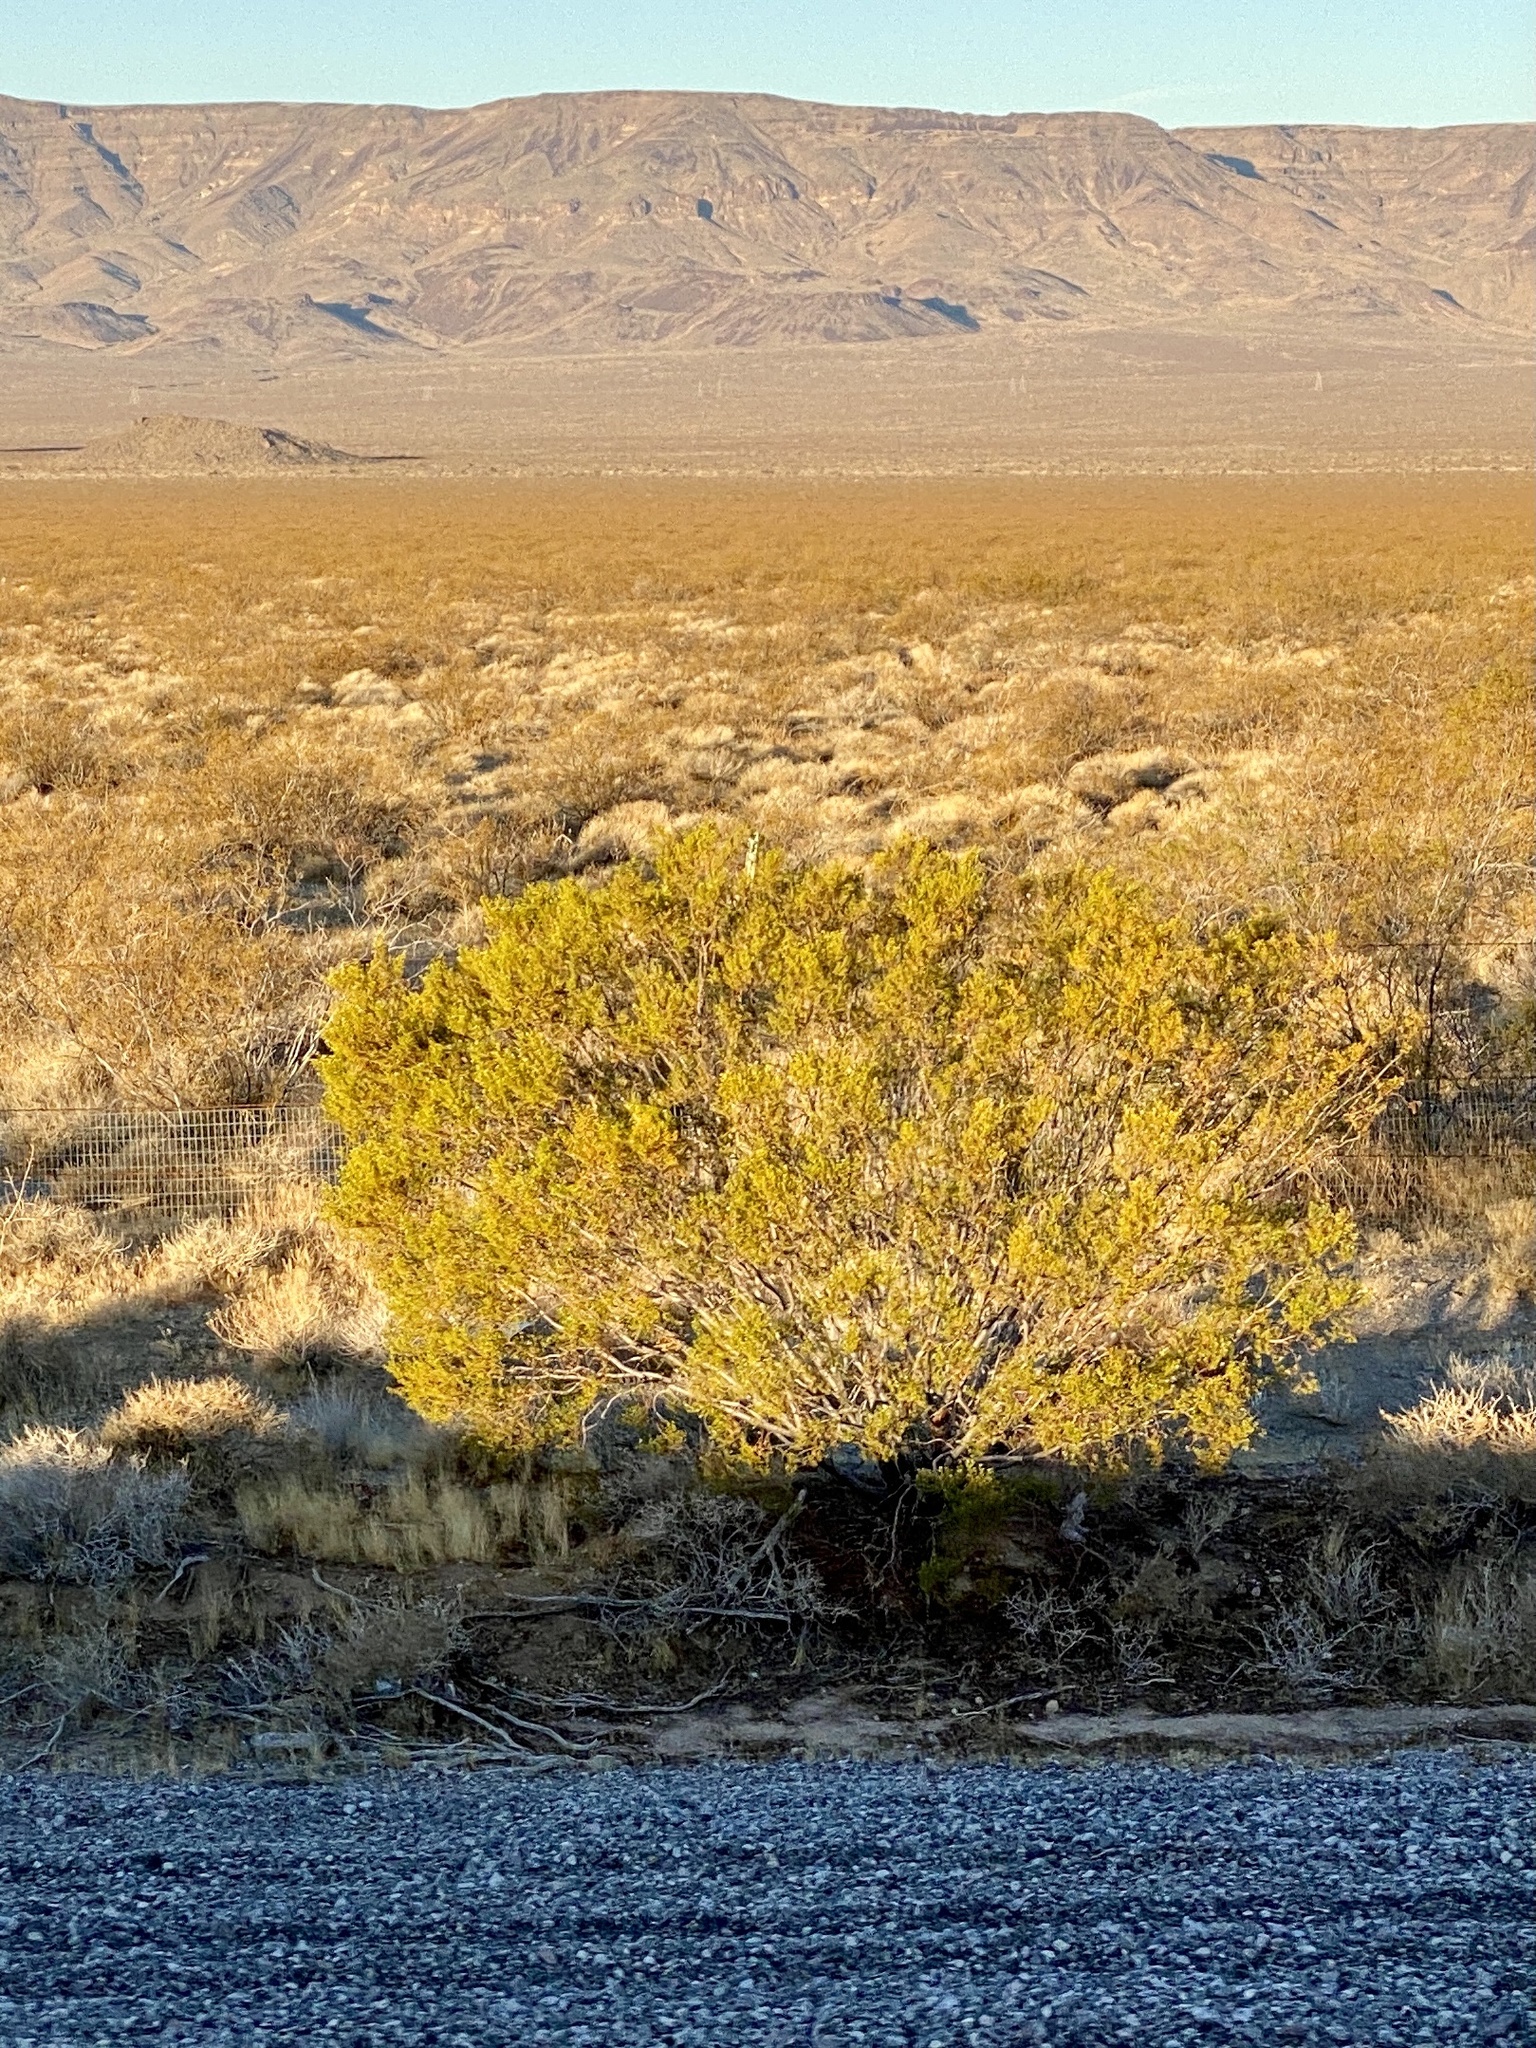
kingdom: Plantae
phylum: Tracheophyta
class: Magnoliopsida
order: Zygophyllales
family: Zygophyllaceae
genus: Larrea
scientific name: Larrea tridentata
